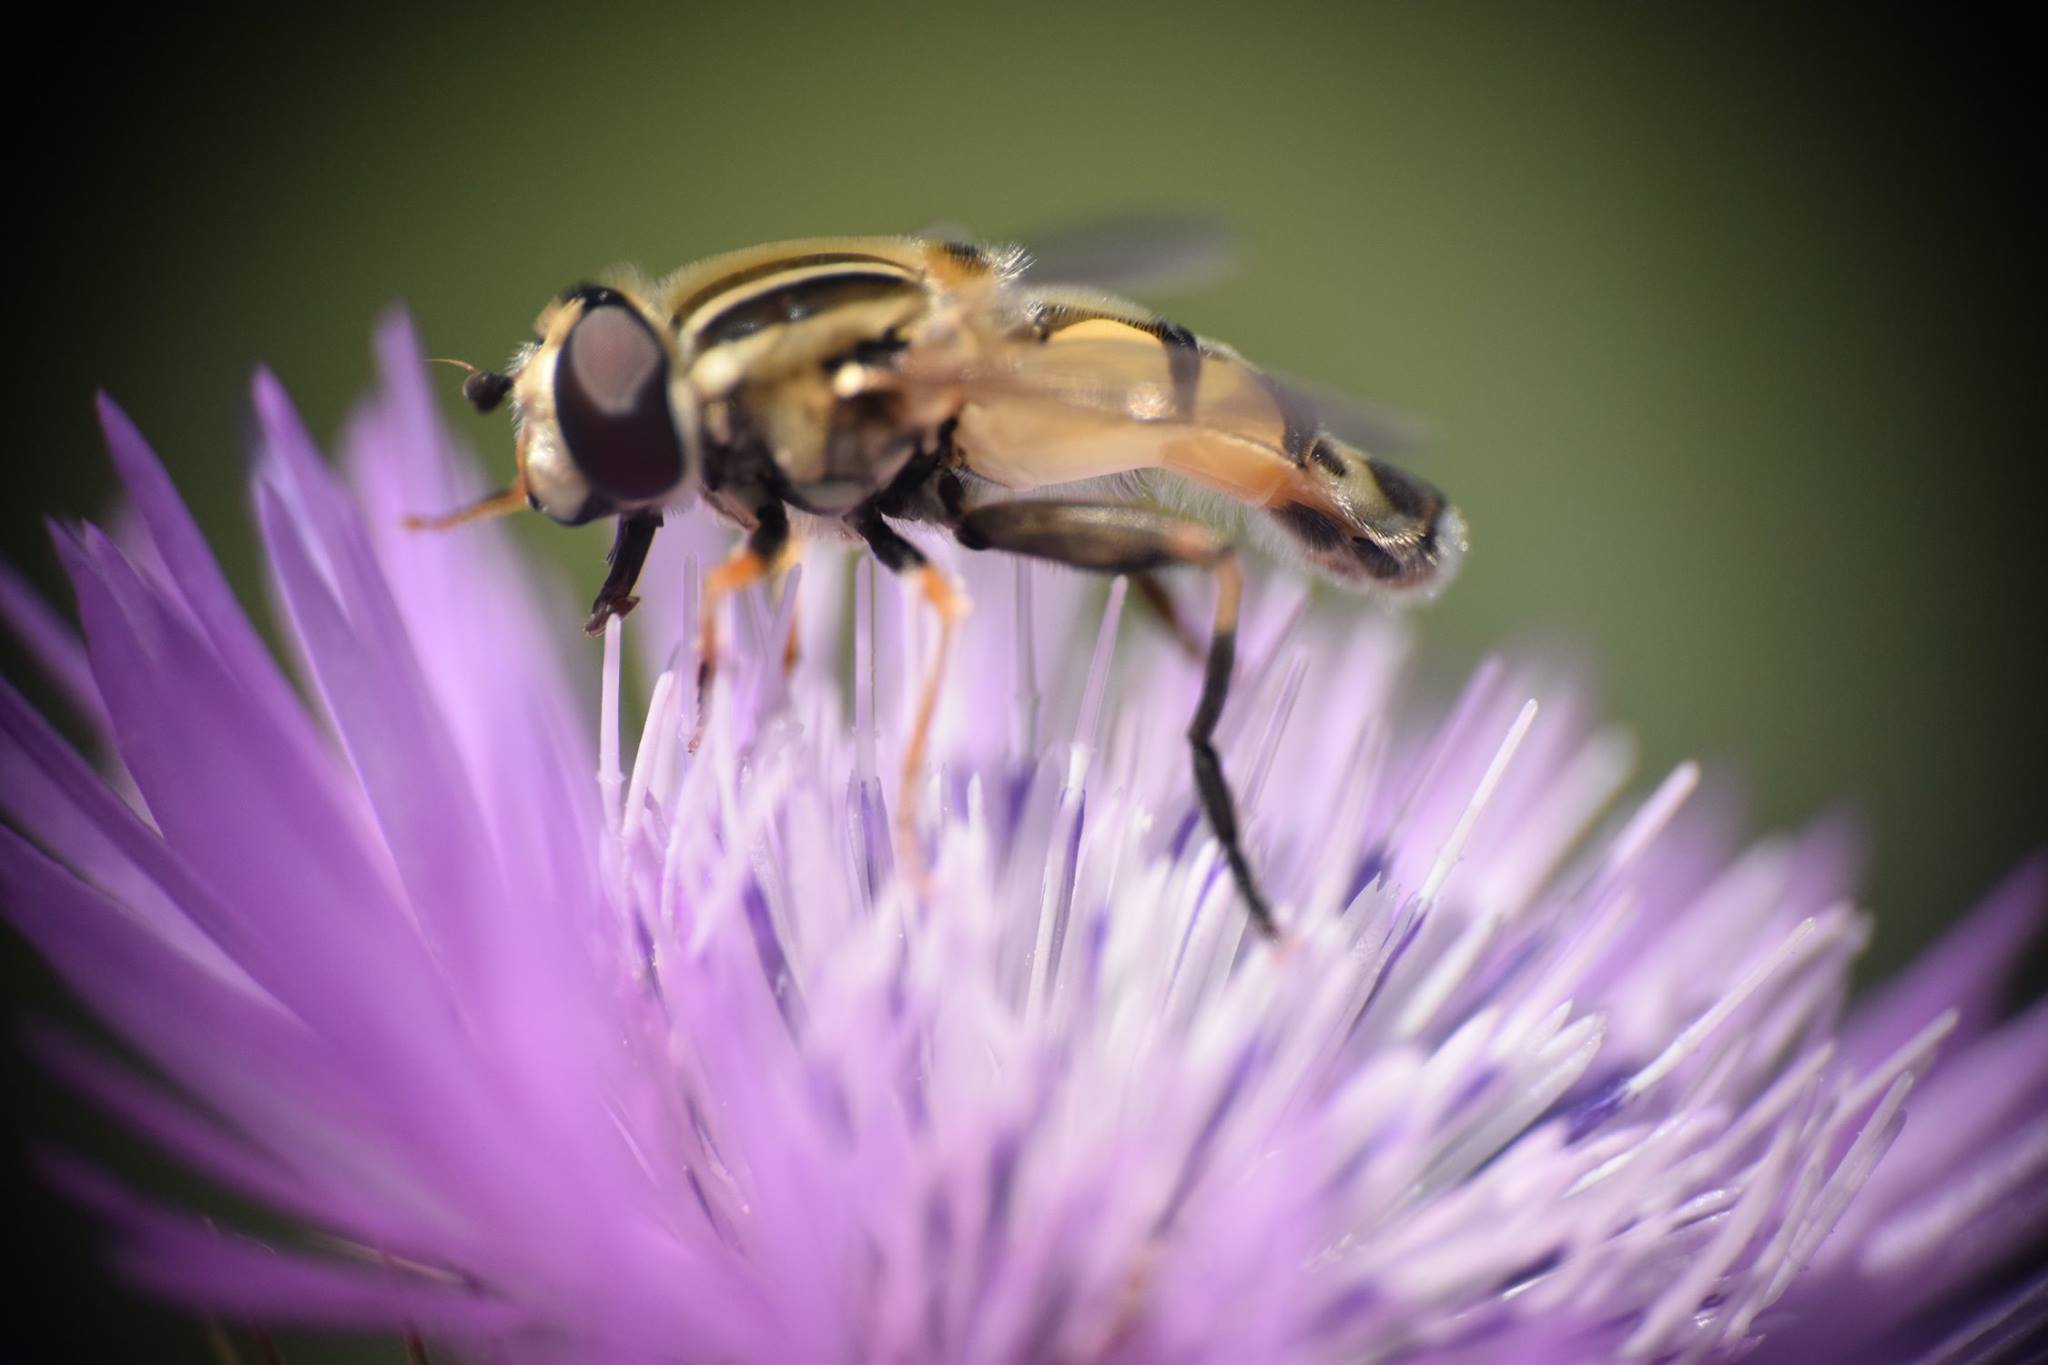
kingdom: Animalia
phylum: Arthropoda
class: Insecta
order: Diptera
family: Syrphidae
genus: Helophilus
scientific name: Helophilus trivittatus
